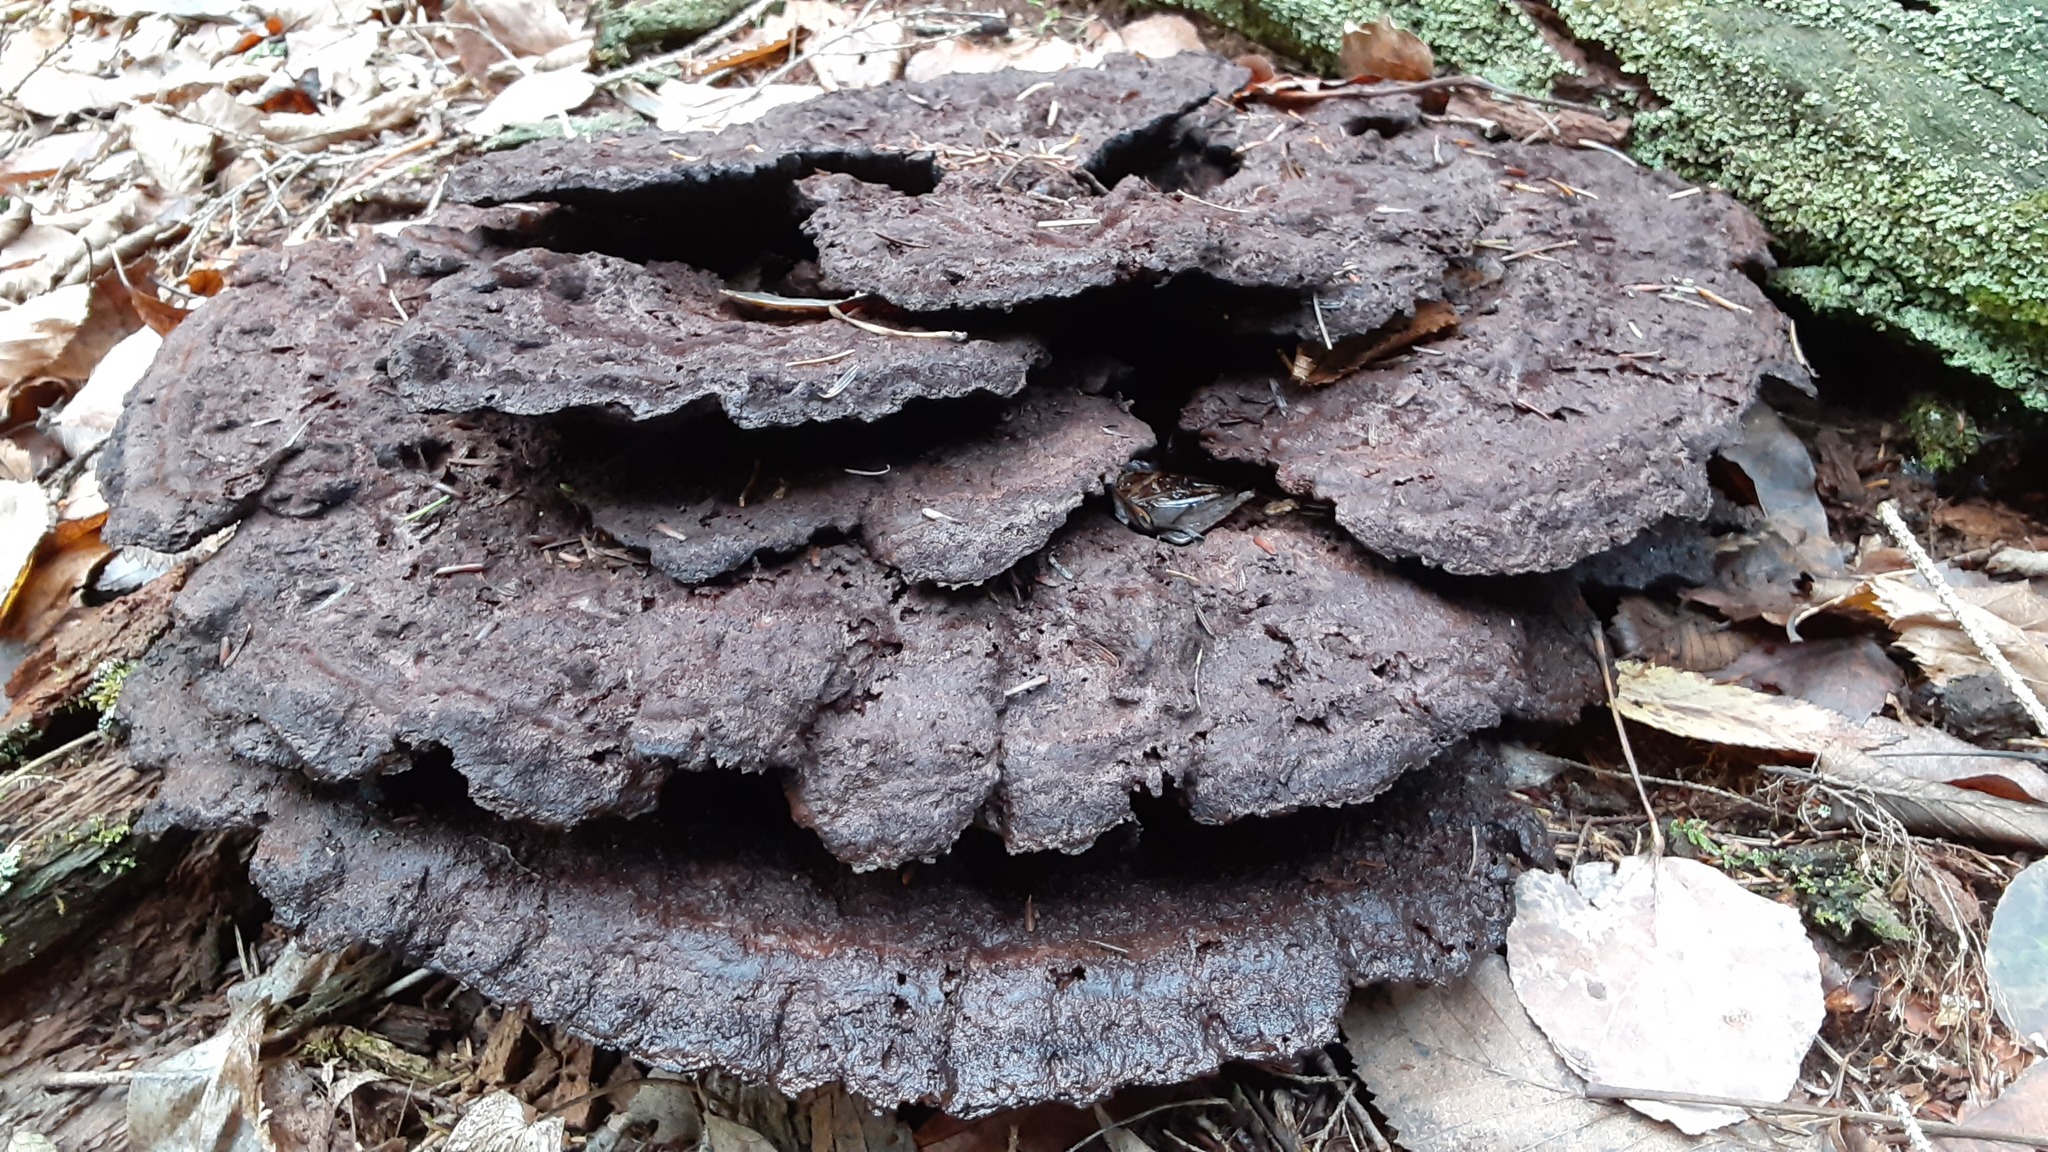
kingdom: Fungi
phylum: Basidiomycota
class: Agaricomycetes
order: Polyporales
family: Laetiporaceae
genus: Phaeolus
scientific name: Phaeolus schweinitzii
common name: Dyer's mazegill
